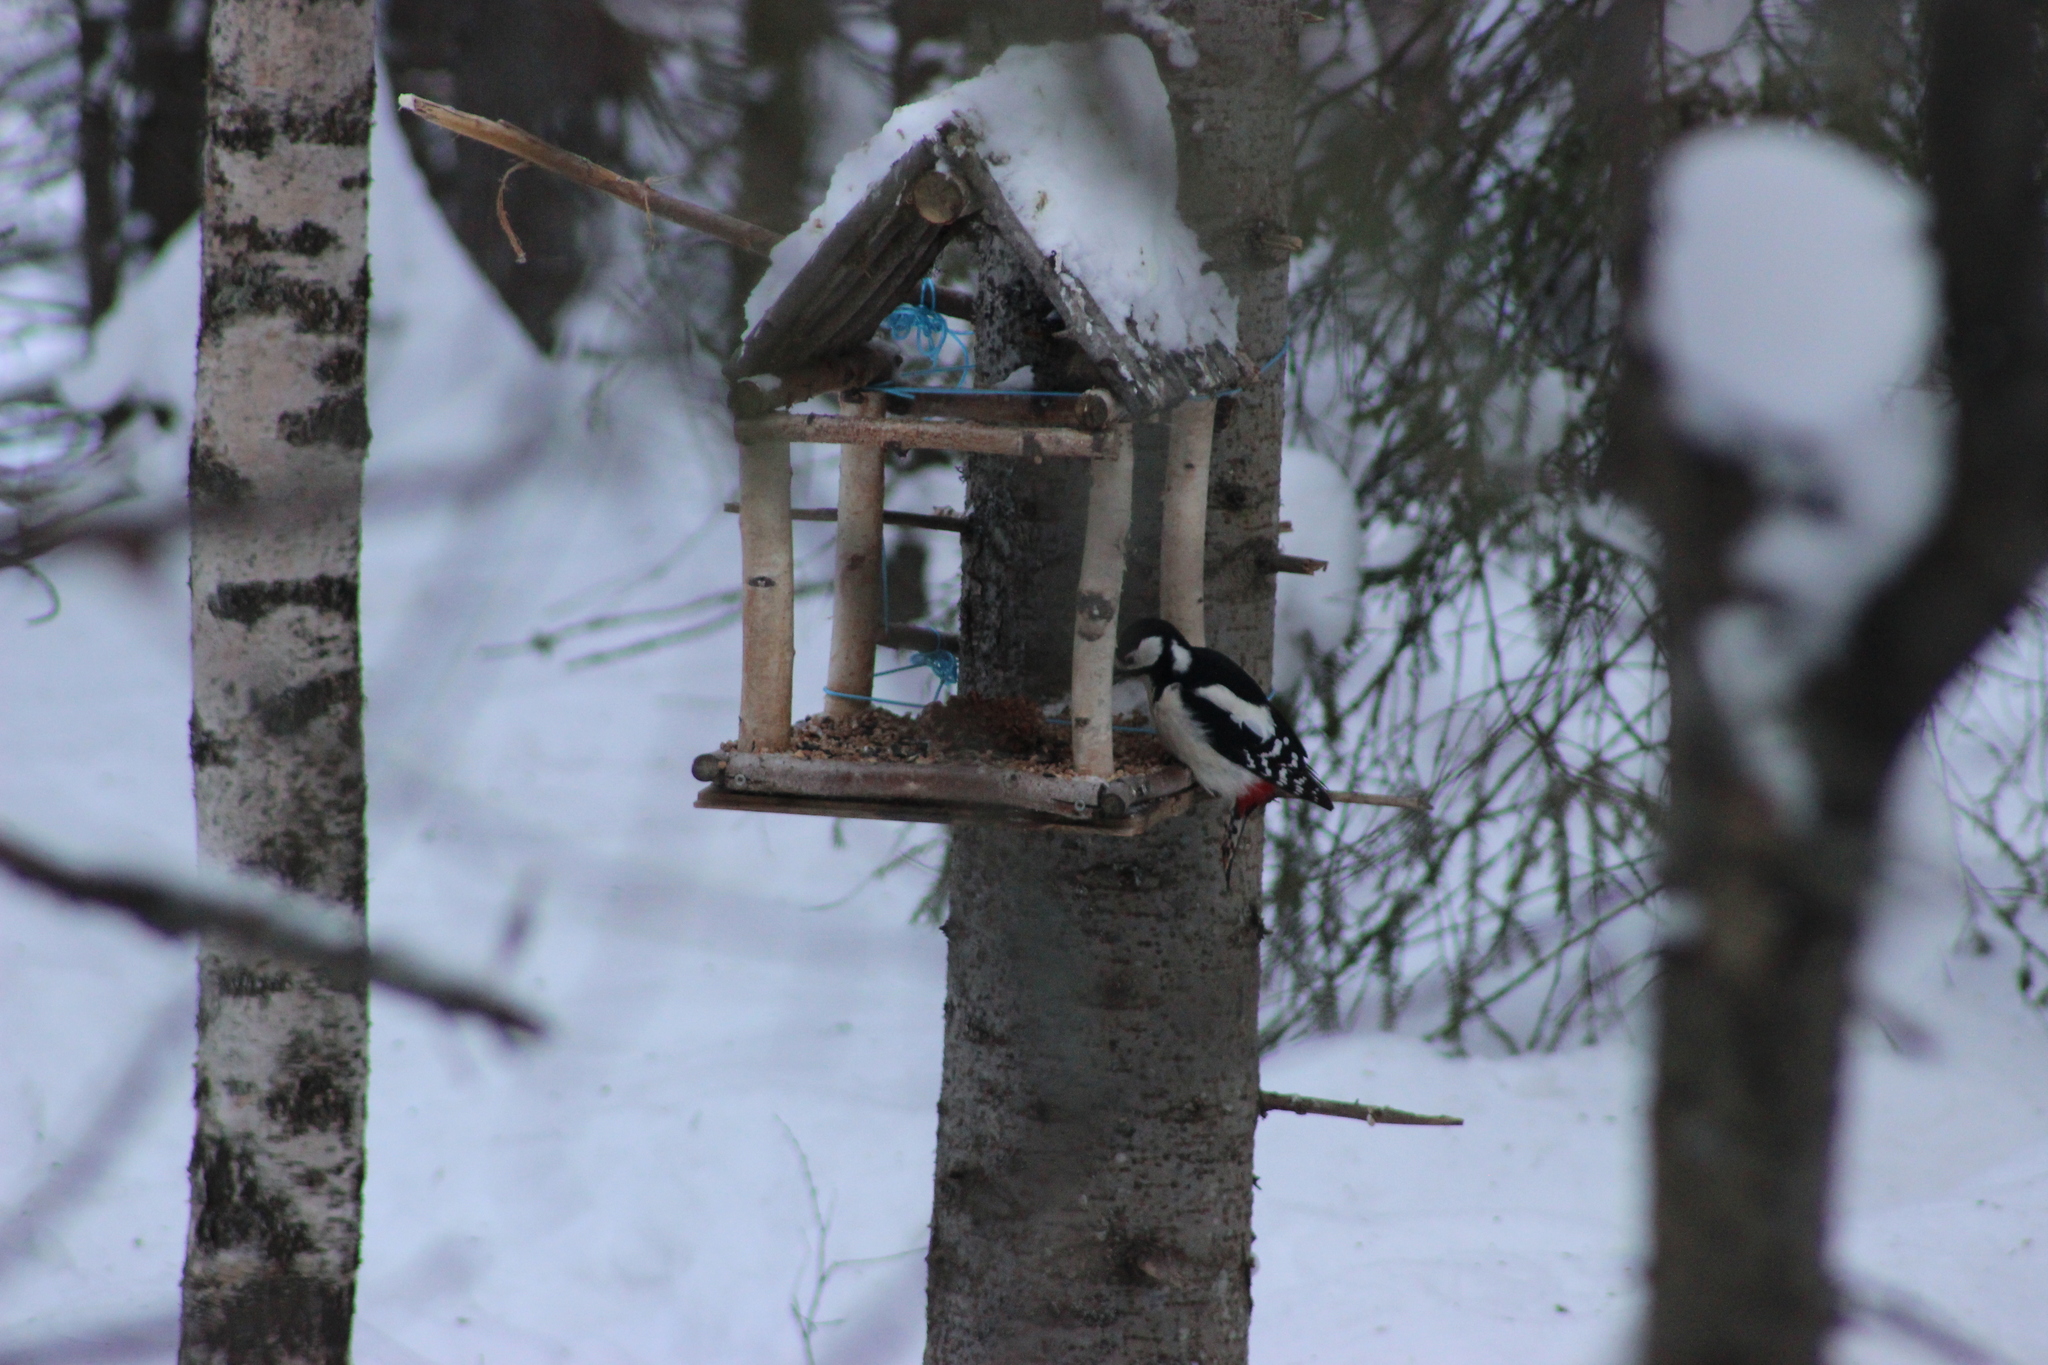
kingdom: Animalia
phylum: Chordata
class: Aves
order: Piciformes
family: Picidae
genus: Dendrocopos
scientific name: Dendrocopos major
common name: Great spotted woodpecker
